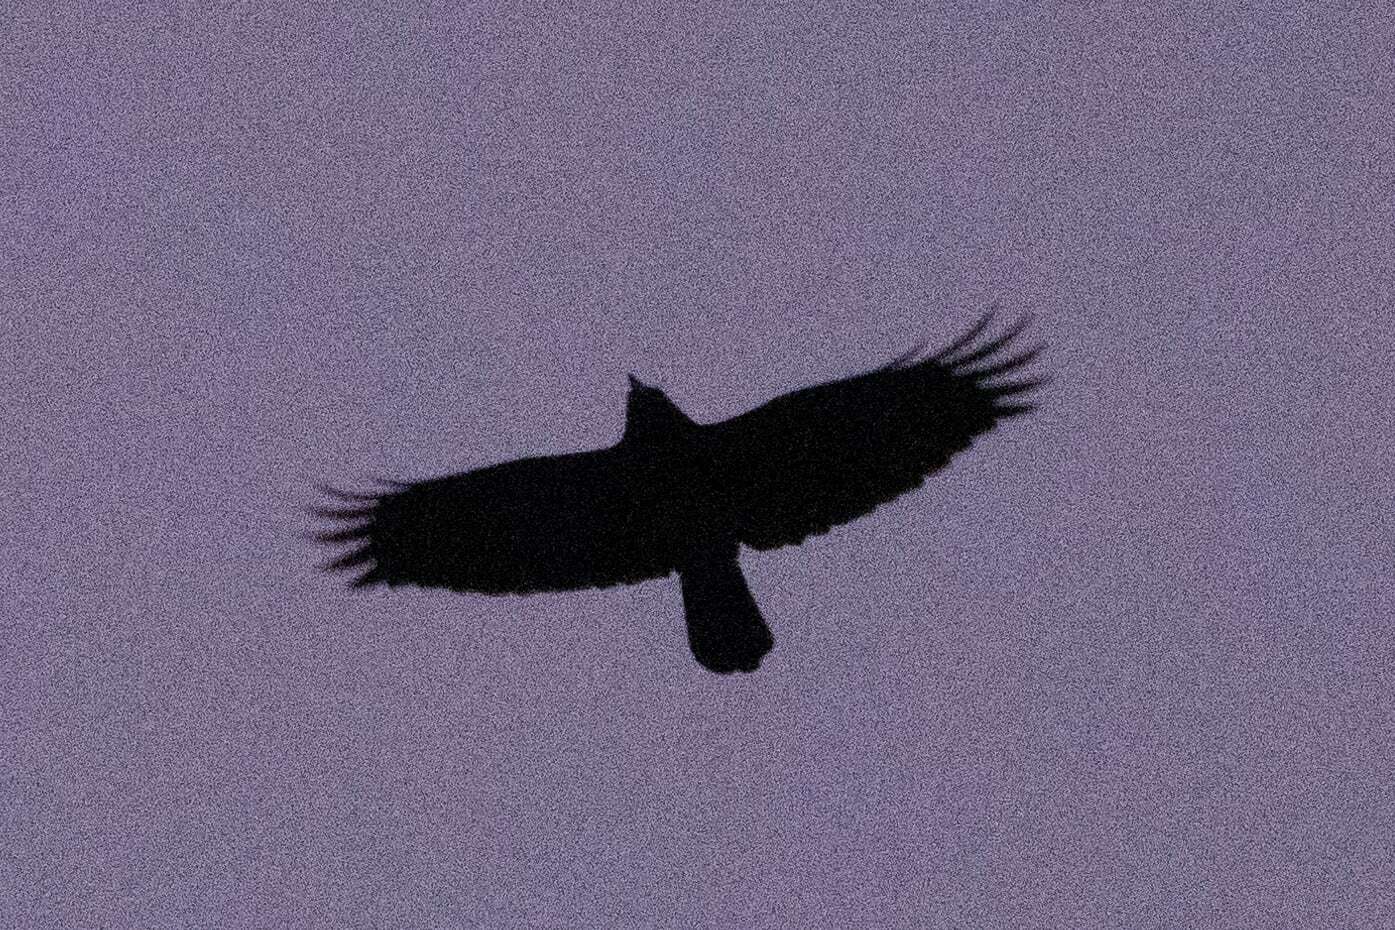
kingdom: Animalia
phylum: Chordata
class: Aves
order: Passeriformes
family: Corvidae
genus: Corvus
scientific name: Corvus corone
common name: Carrion crow
